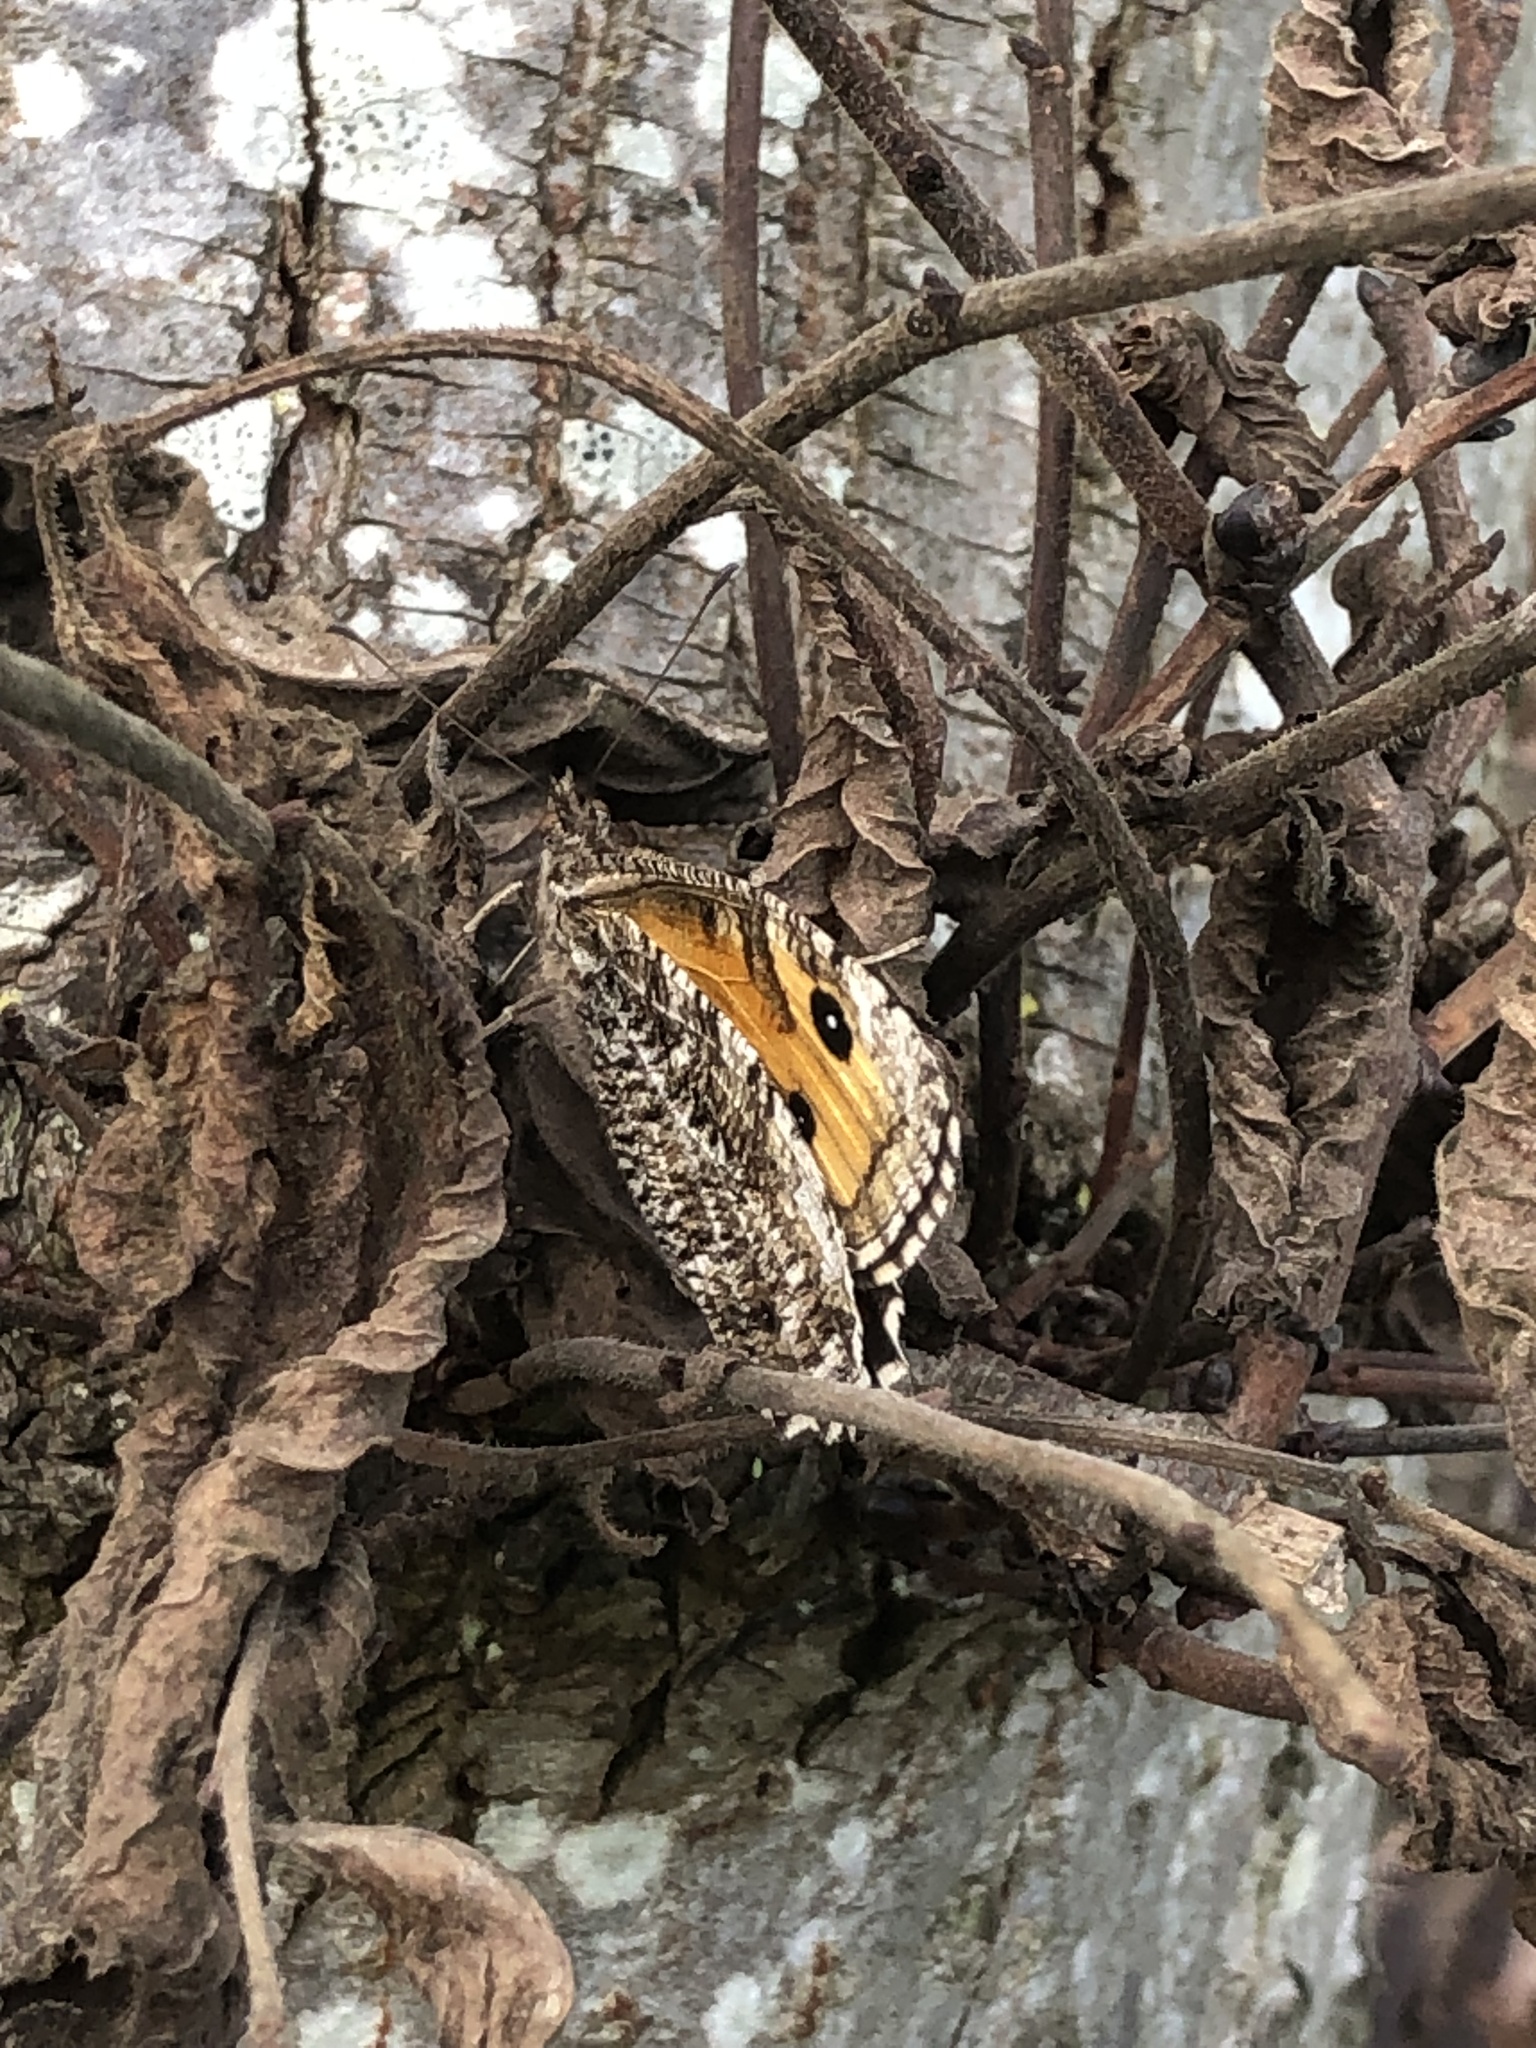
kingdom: Animalia
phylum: Arthropoda
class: Insecta
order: Lepidoptera
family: Nymphalidae
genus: Hipparchia
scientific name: Hipparchia semele
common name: Grayling
